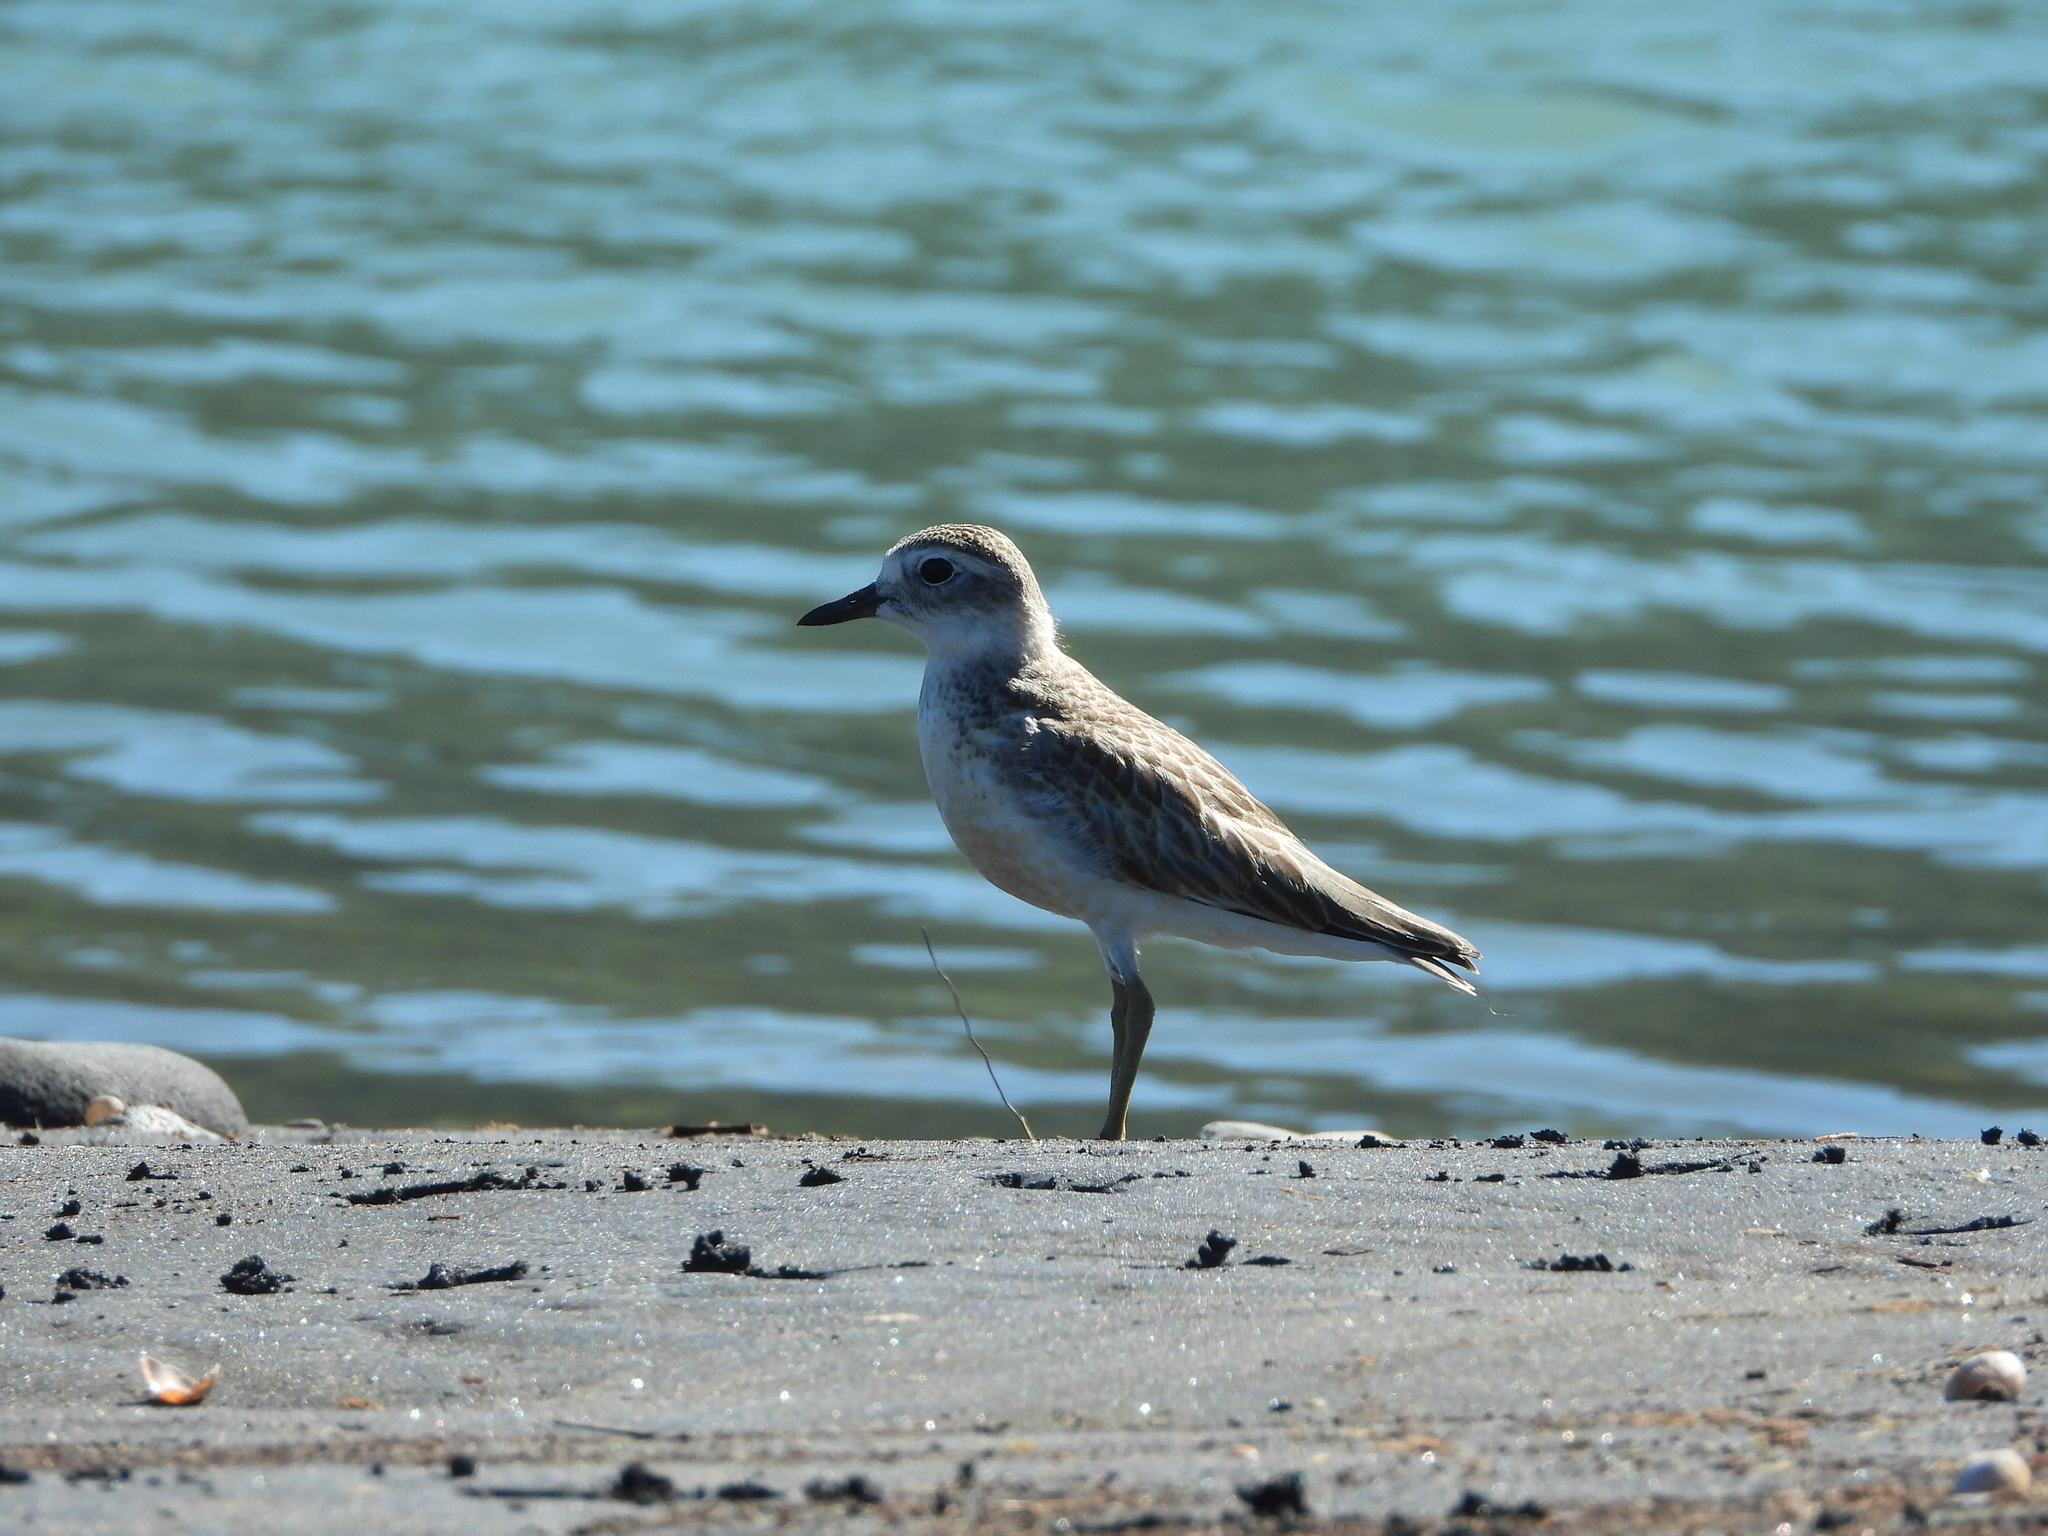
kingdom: Animalia
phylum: Chordata
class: Aves
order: Charadriiformes
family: Charadriidae
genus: Anarhynchus
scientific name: Anarhynchus
